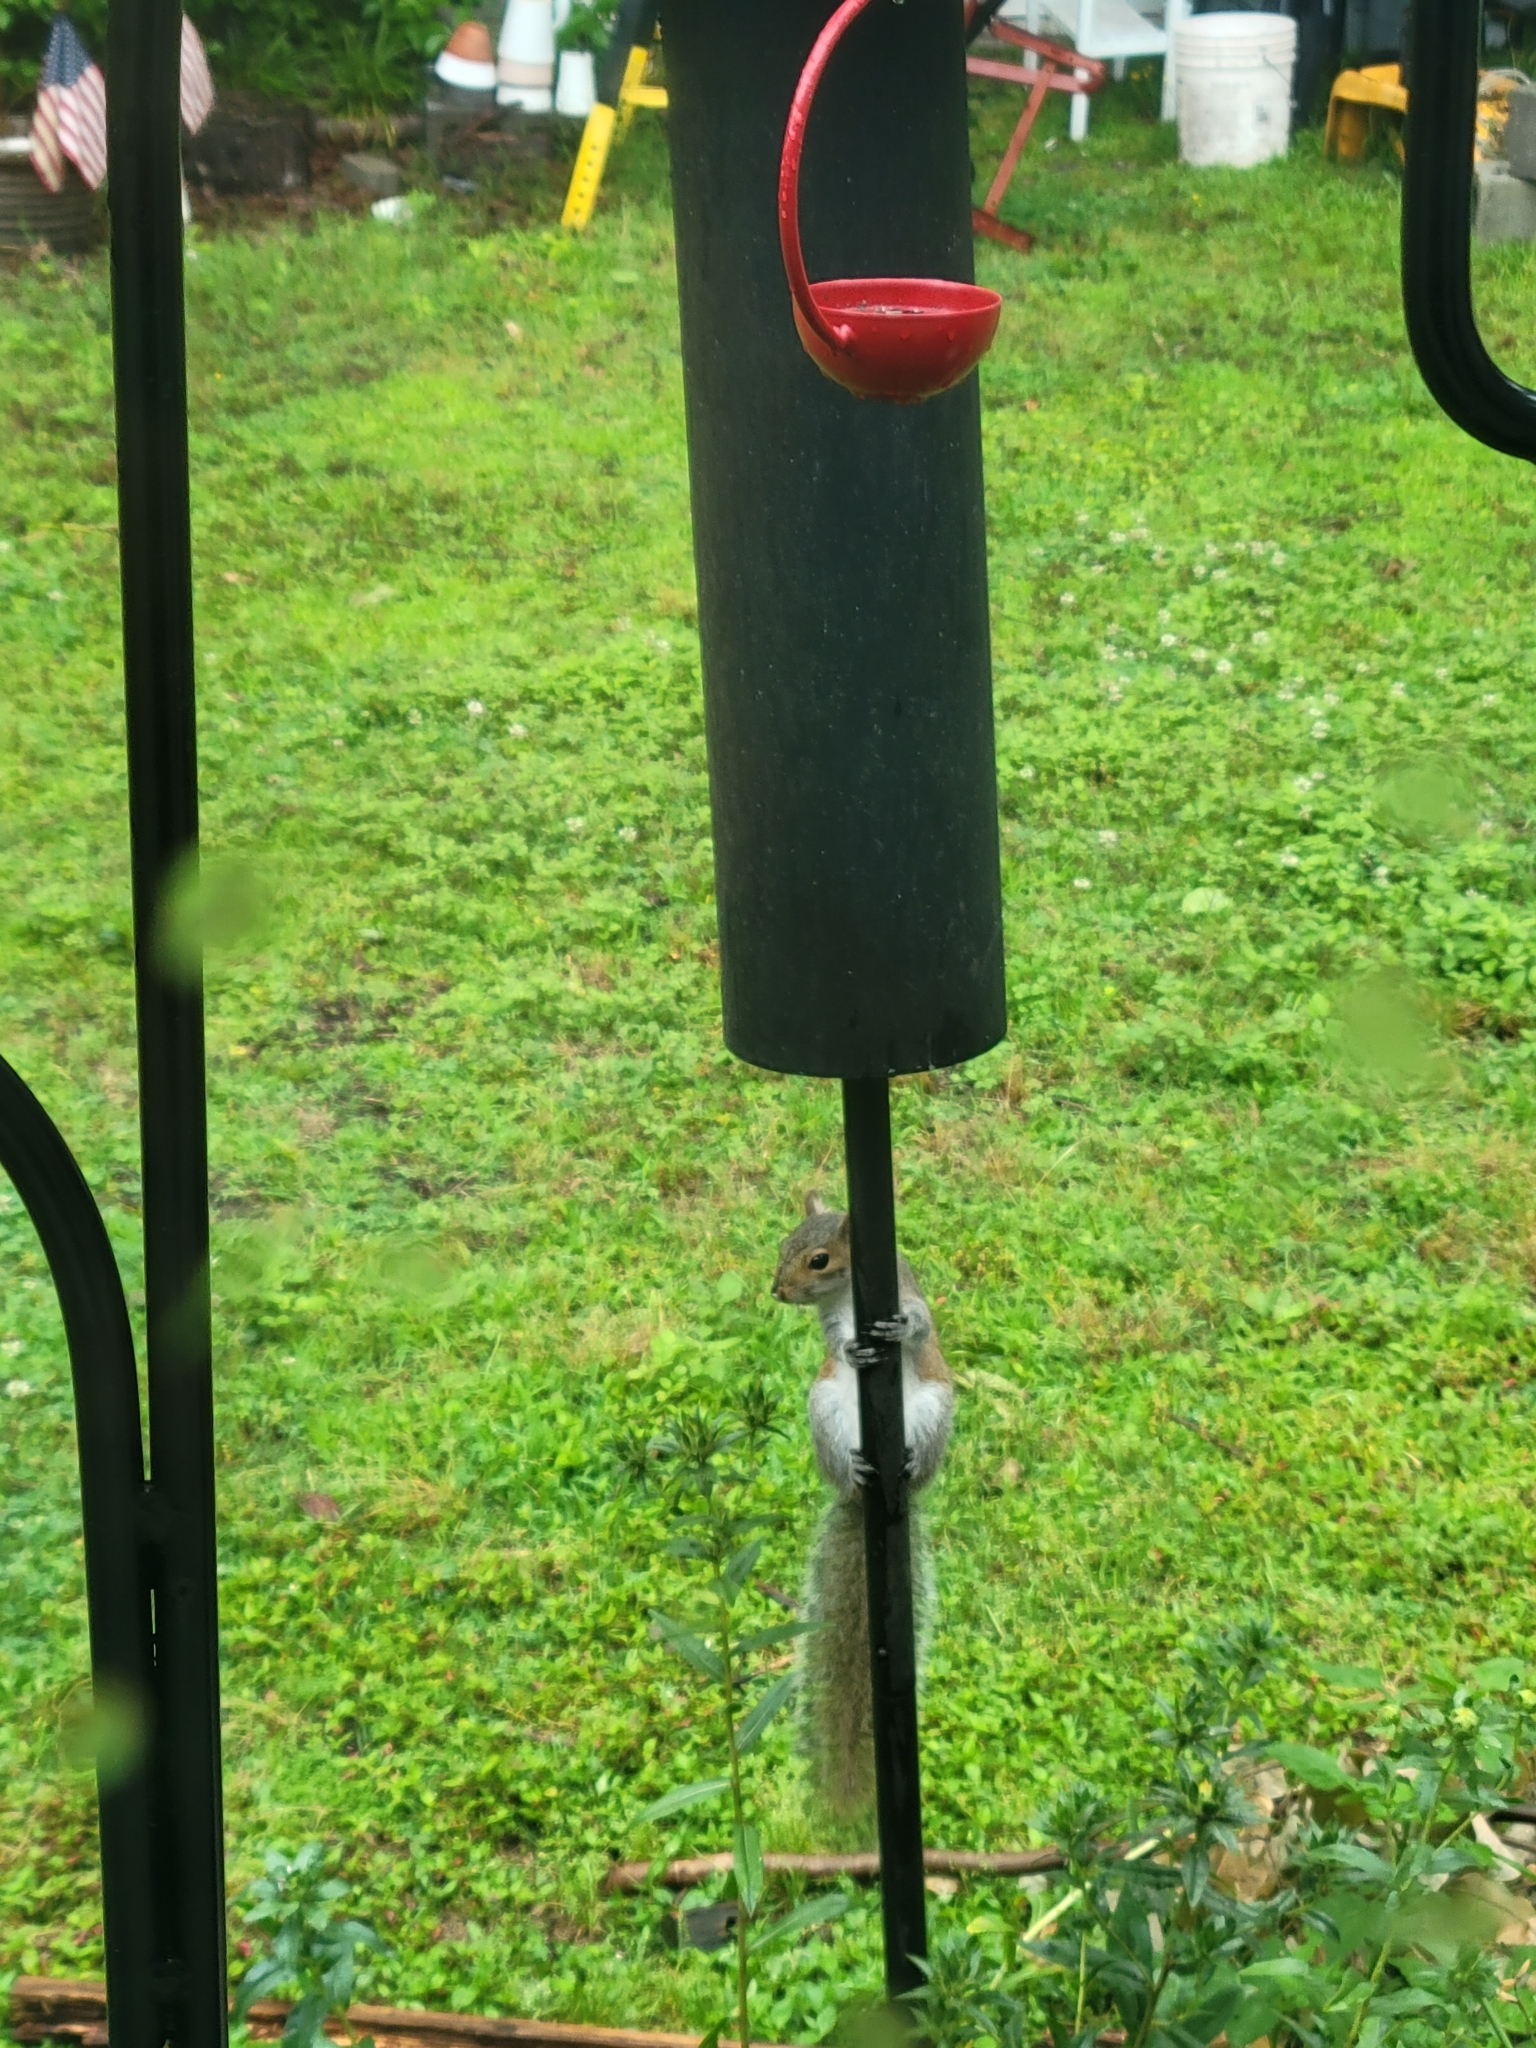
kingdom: Animalia
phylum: Chordata
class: Mammalia
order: Rodentia
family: Sciuridae
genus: Sciurus
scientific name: Sciurus carolinensis
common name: Eastern gray squirrel
